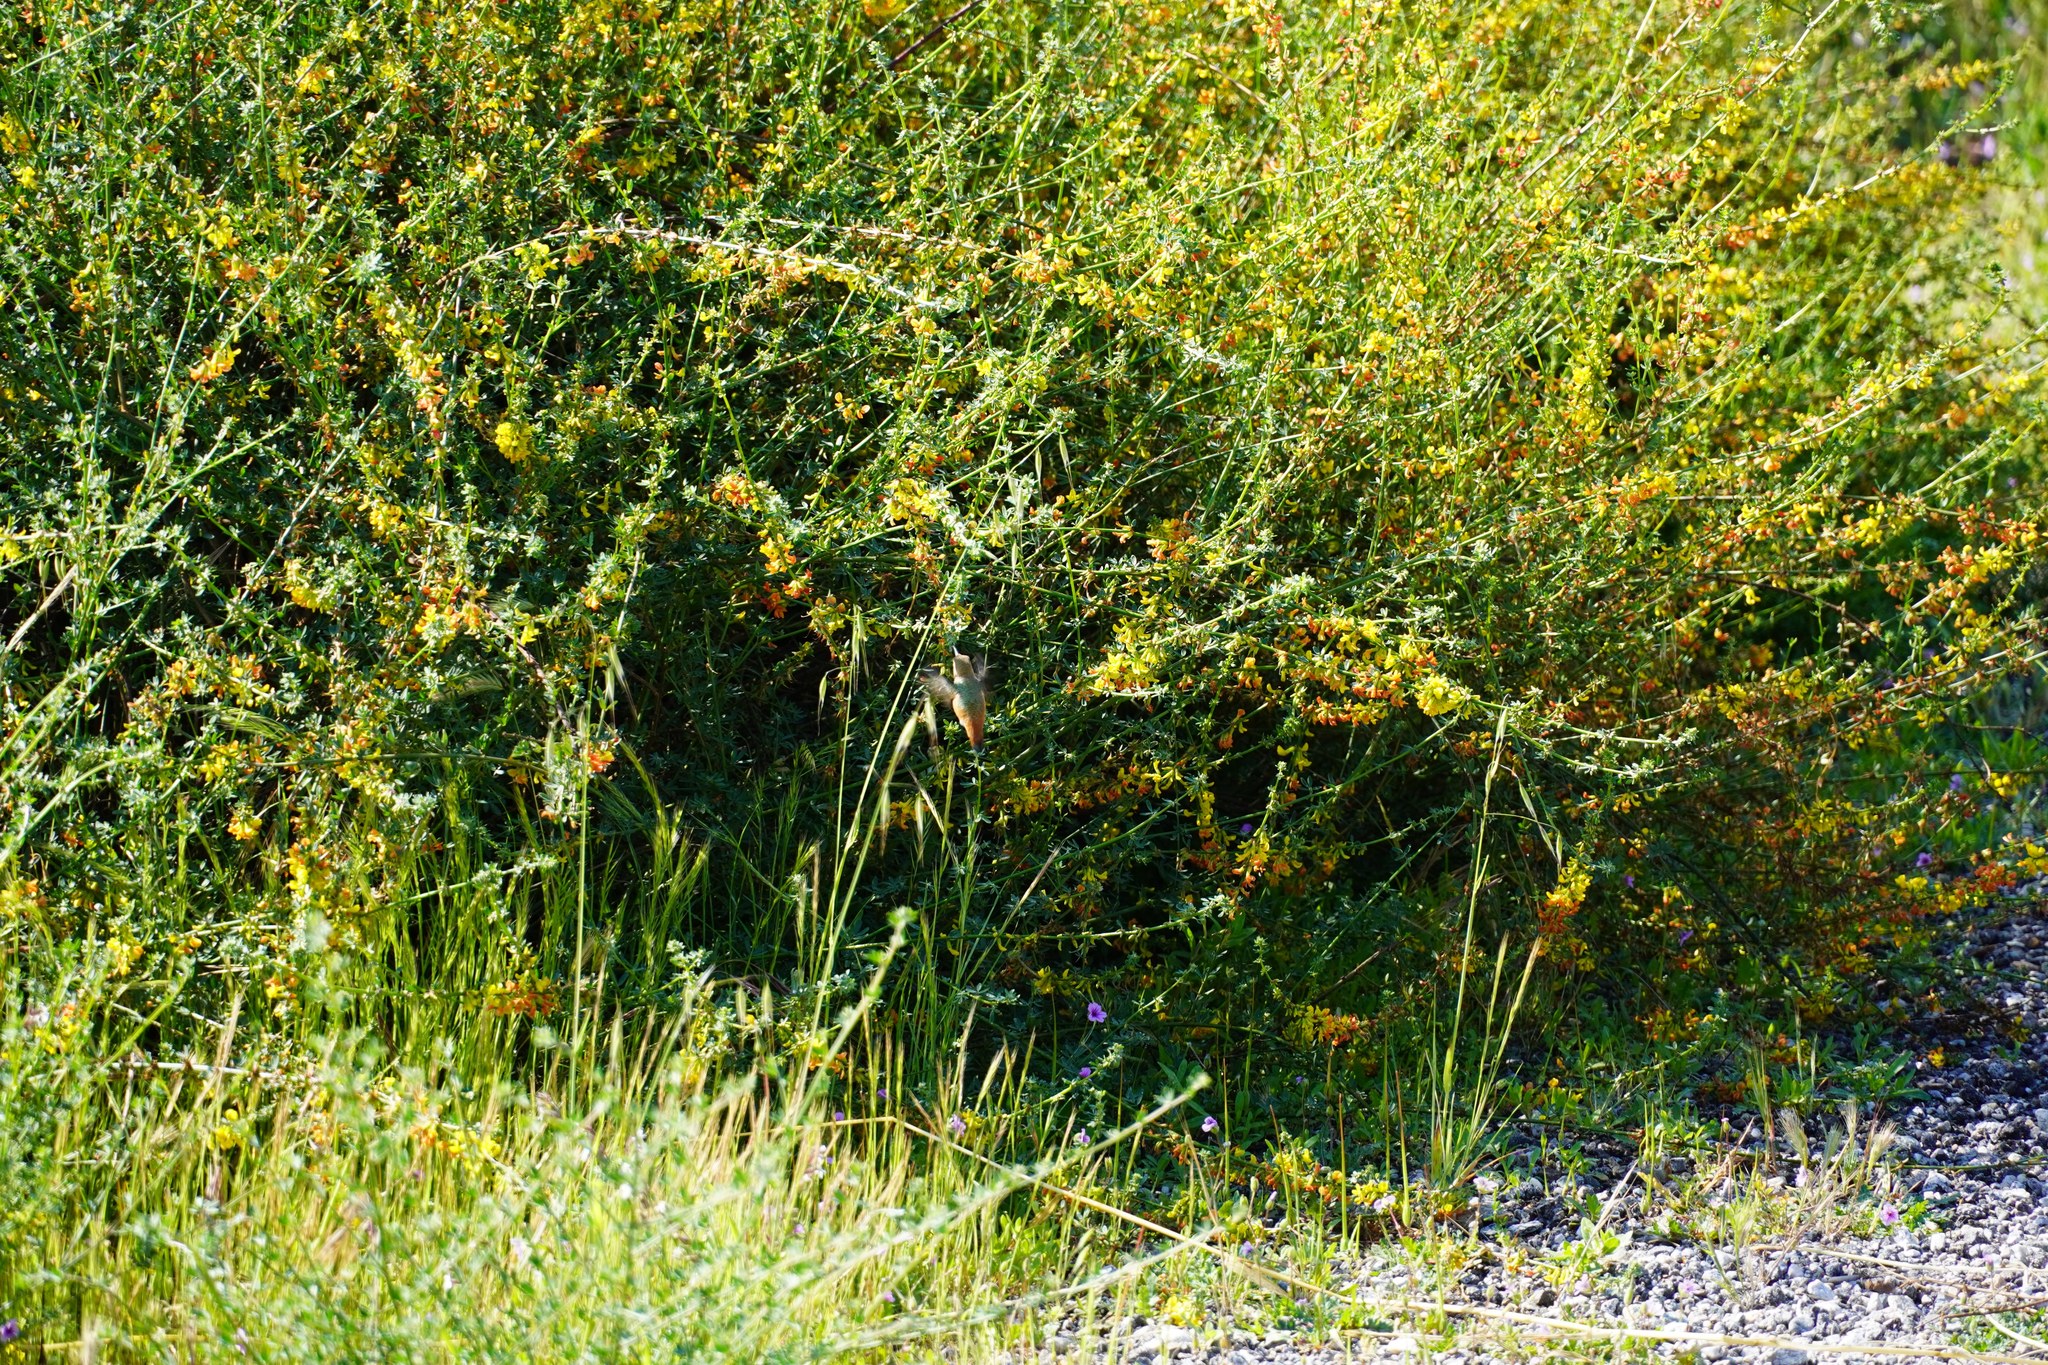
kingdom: Animalia
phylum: Chordata
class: Aves
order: Apodiformes
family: Trochilidae
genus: Selasphorus
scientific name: Selasphorus
